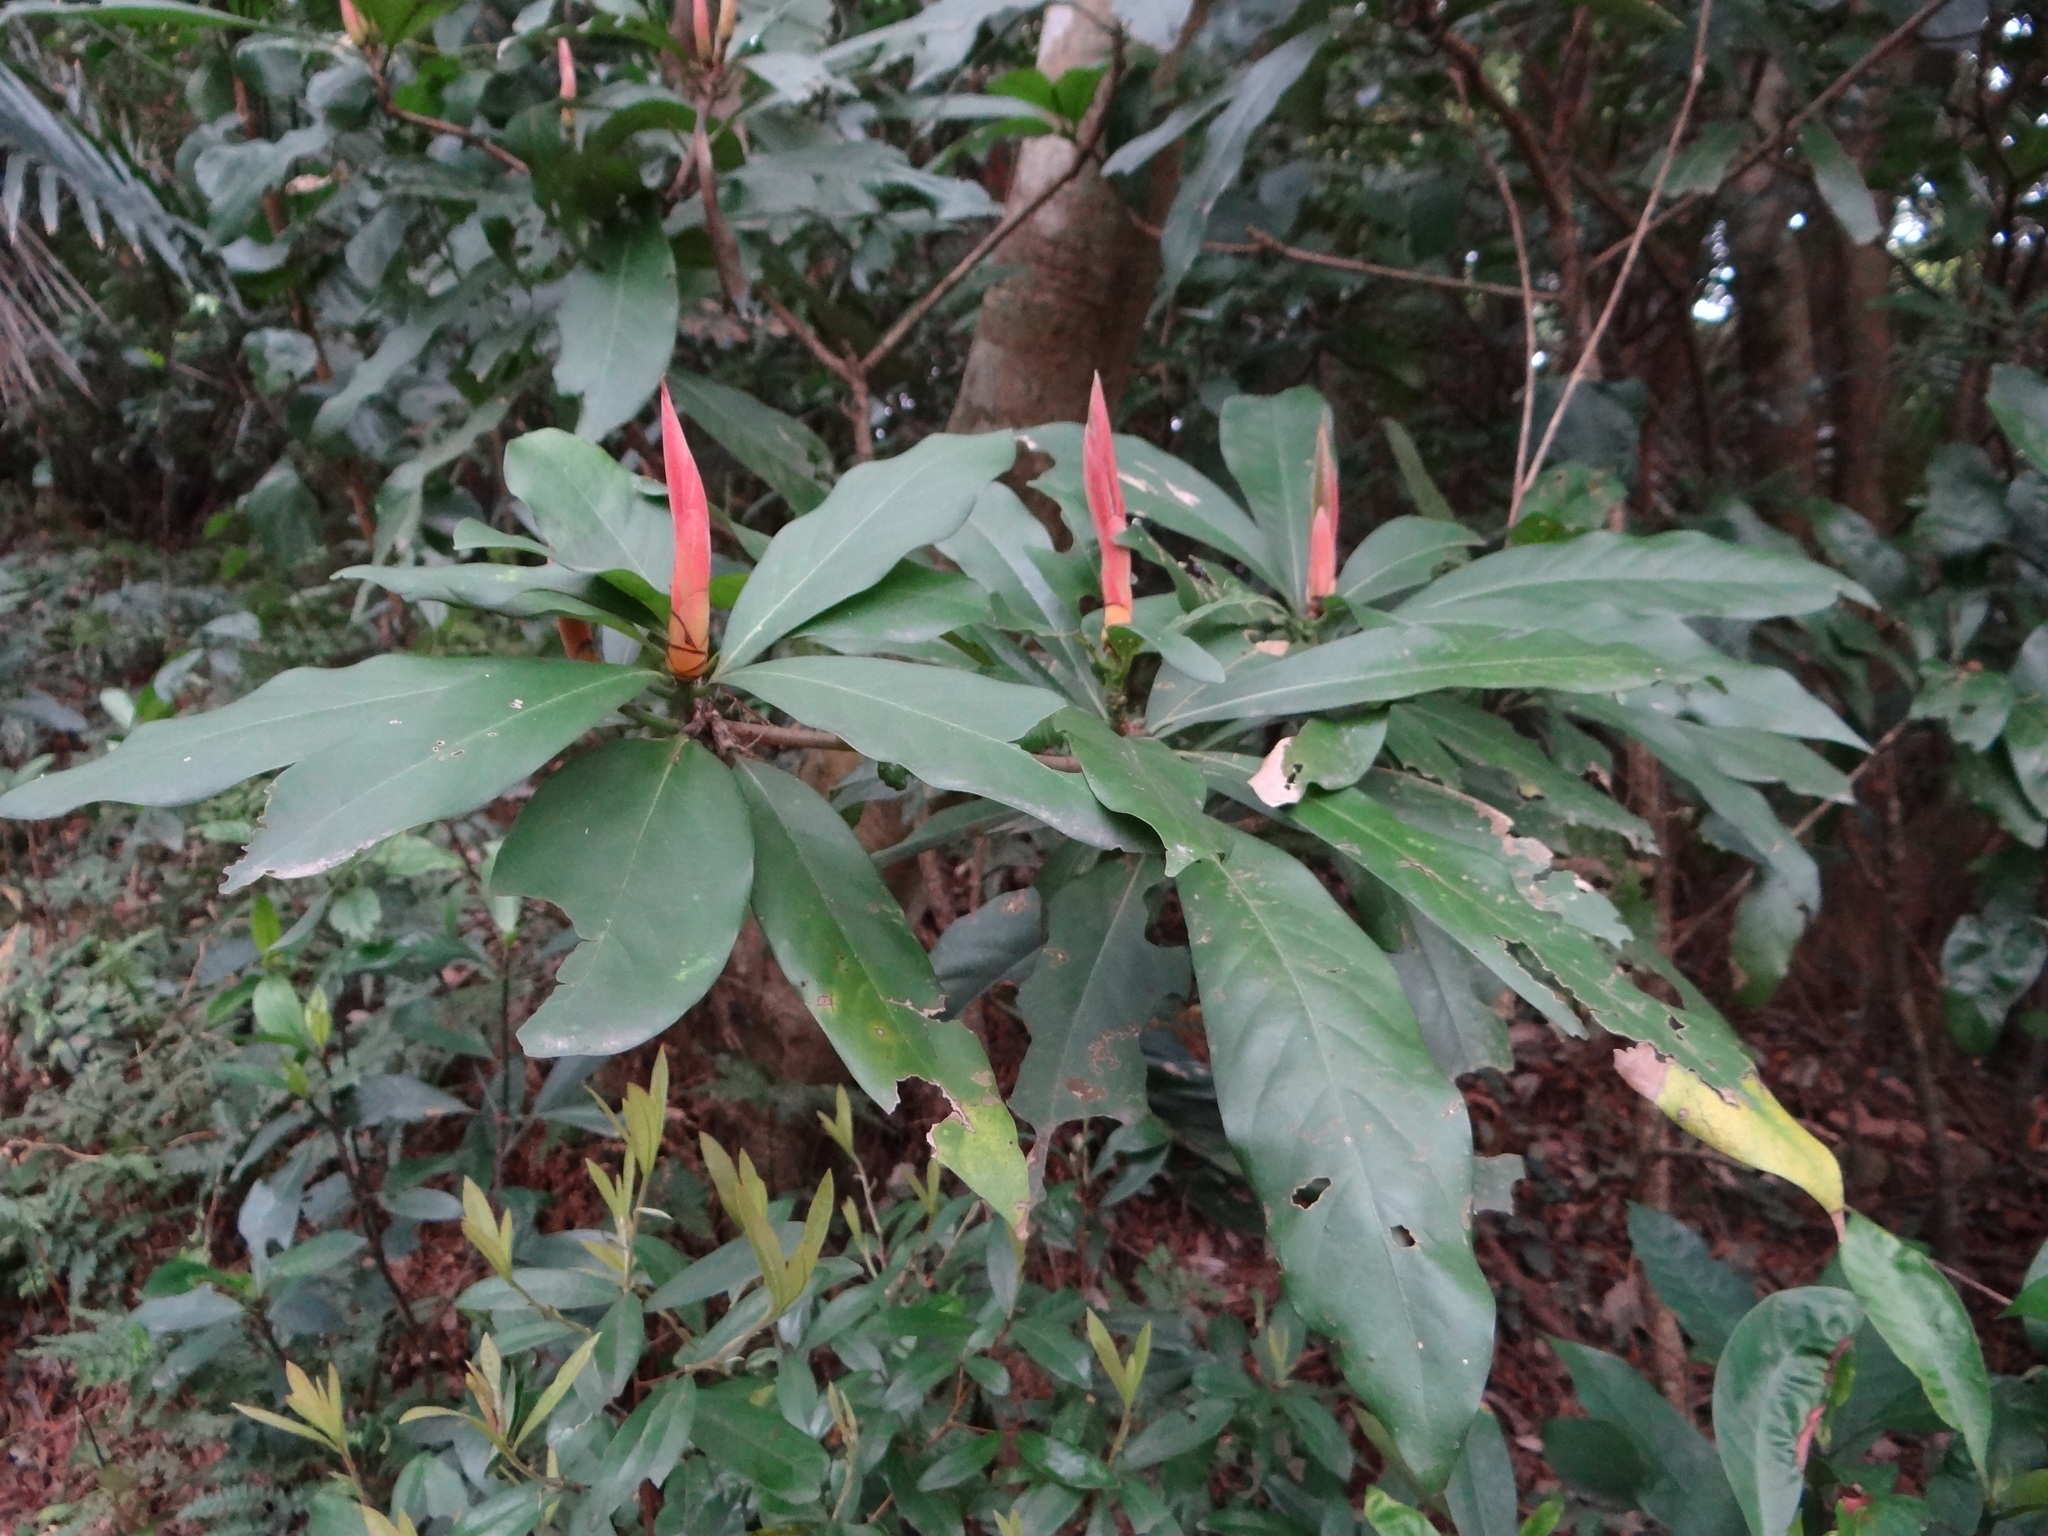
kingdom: Plantae
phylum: Tracheophyta
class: Magnoliopsida
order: Laurales
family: Lauraceae
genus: Machilus
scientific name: Machilus japonica
